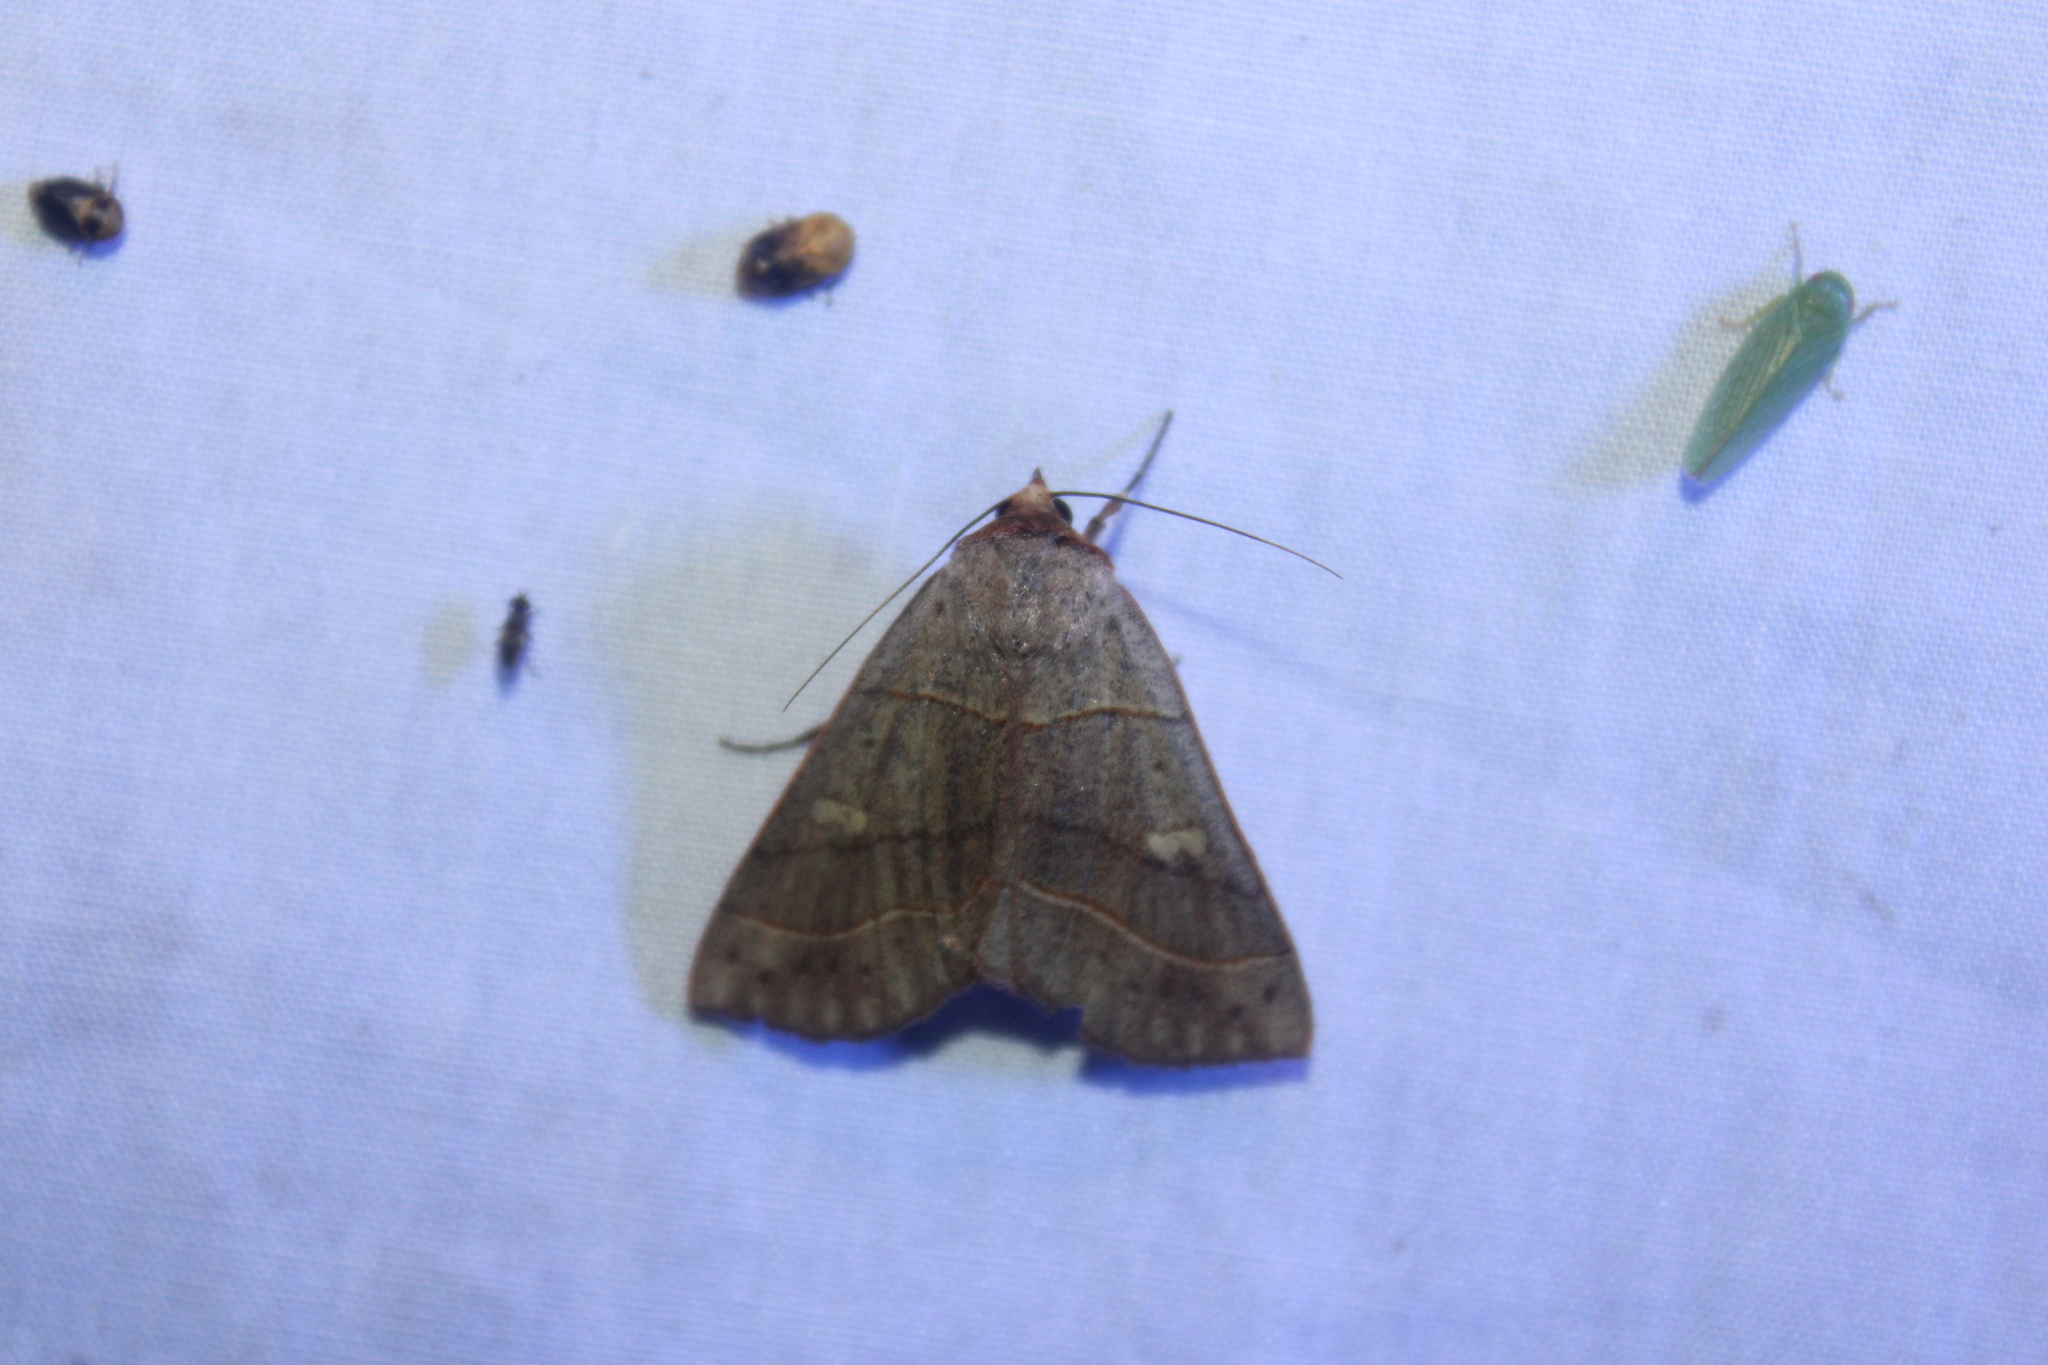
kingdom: Animalia
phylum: Arthropoda
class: Insecta
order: Lepidoptera
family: Erebidae
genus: Panopoda
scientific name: Panopoda rufimargo
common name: Red-lined panopoda moth
